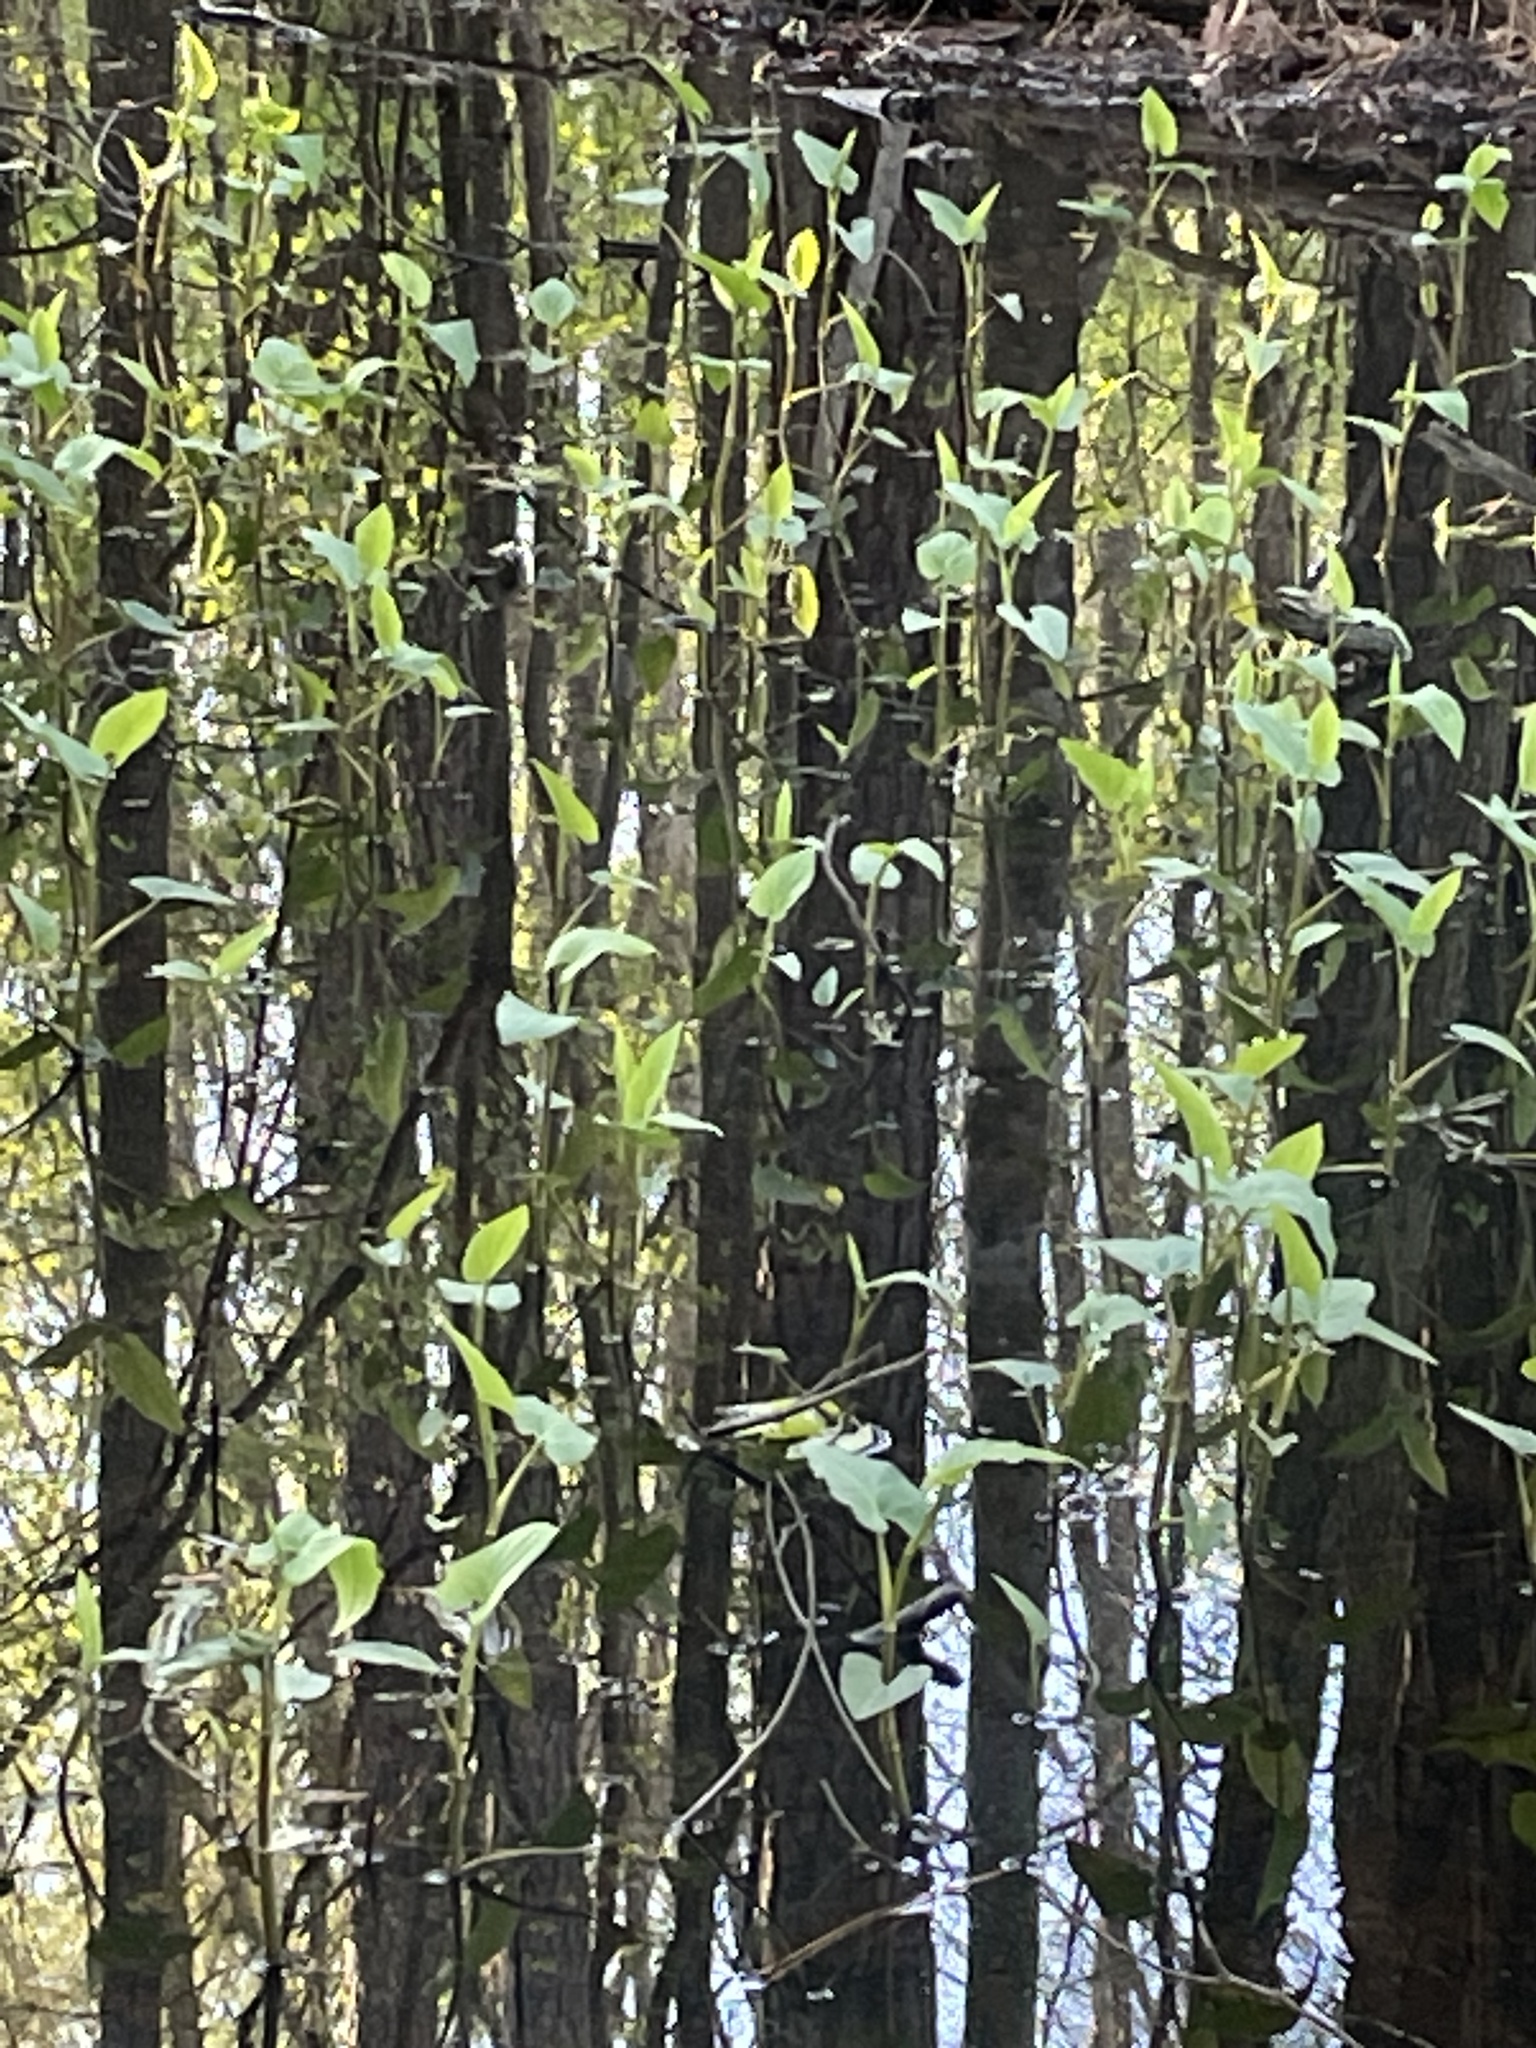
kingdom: Plantae
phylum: Tracheophyta
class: Magnoliopsida
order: Piperales
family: Saururaceae
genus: Saururus
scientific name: Saururus cernuus
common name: Lizard's-tail
